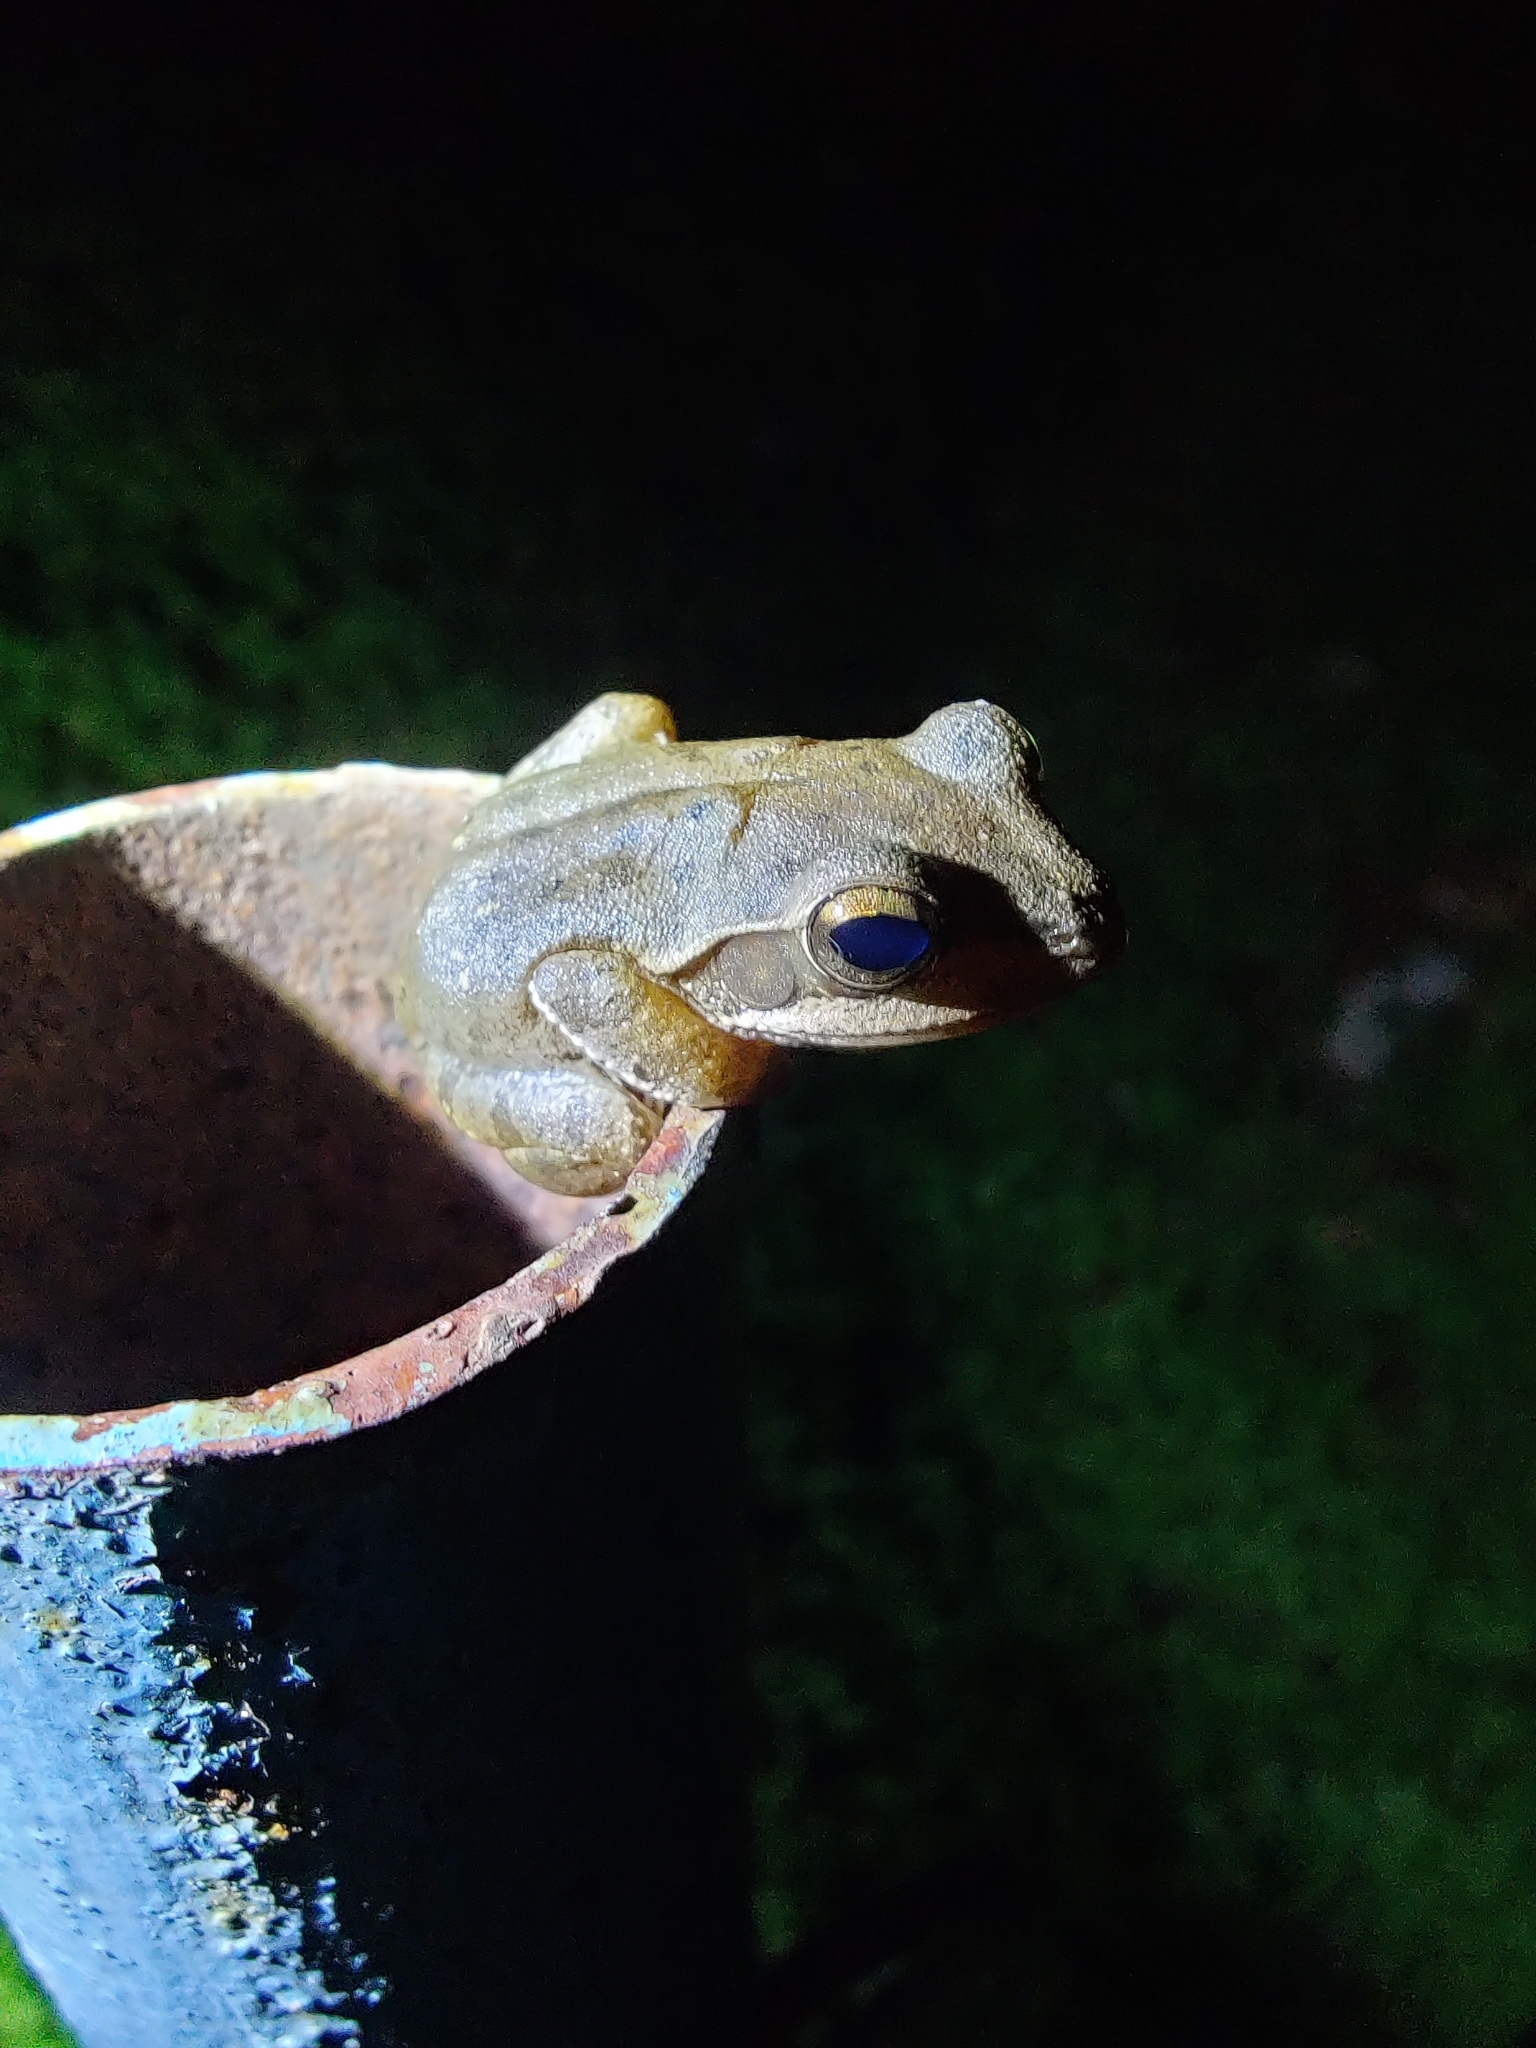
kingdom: Animalia
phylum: Chordata
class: Amphibia
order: Anura
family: Rhacophoridae
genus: Polypedates
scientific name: Polypedates maculatus
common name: Himalayan tree frog
